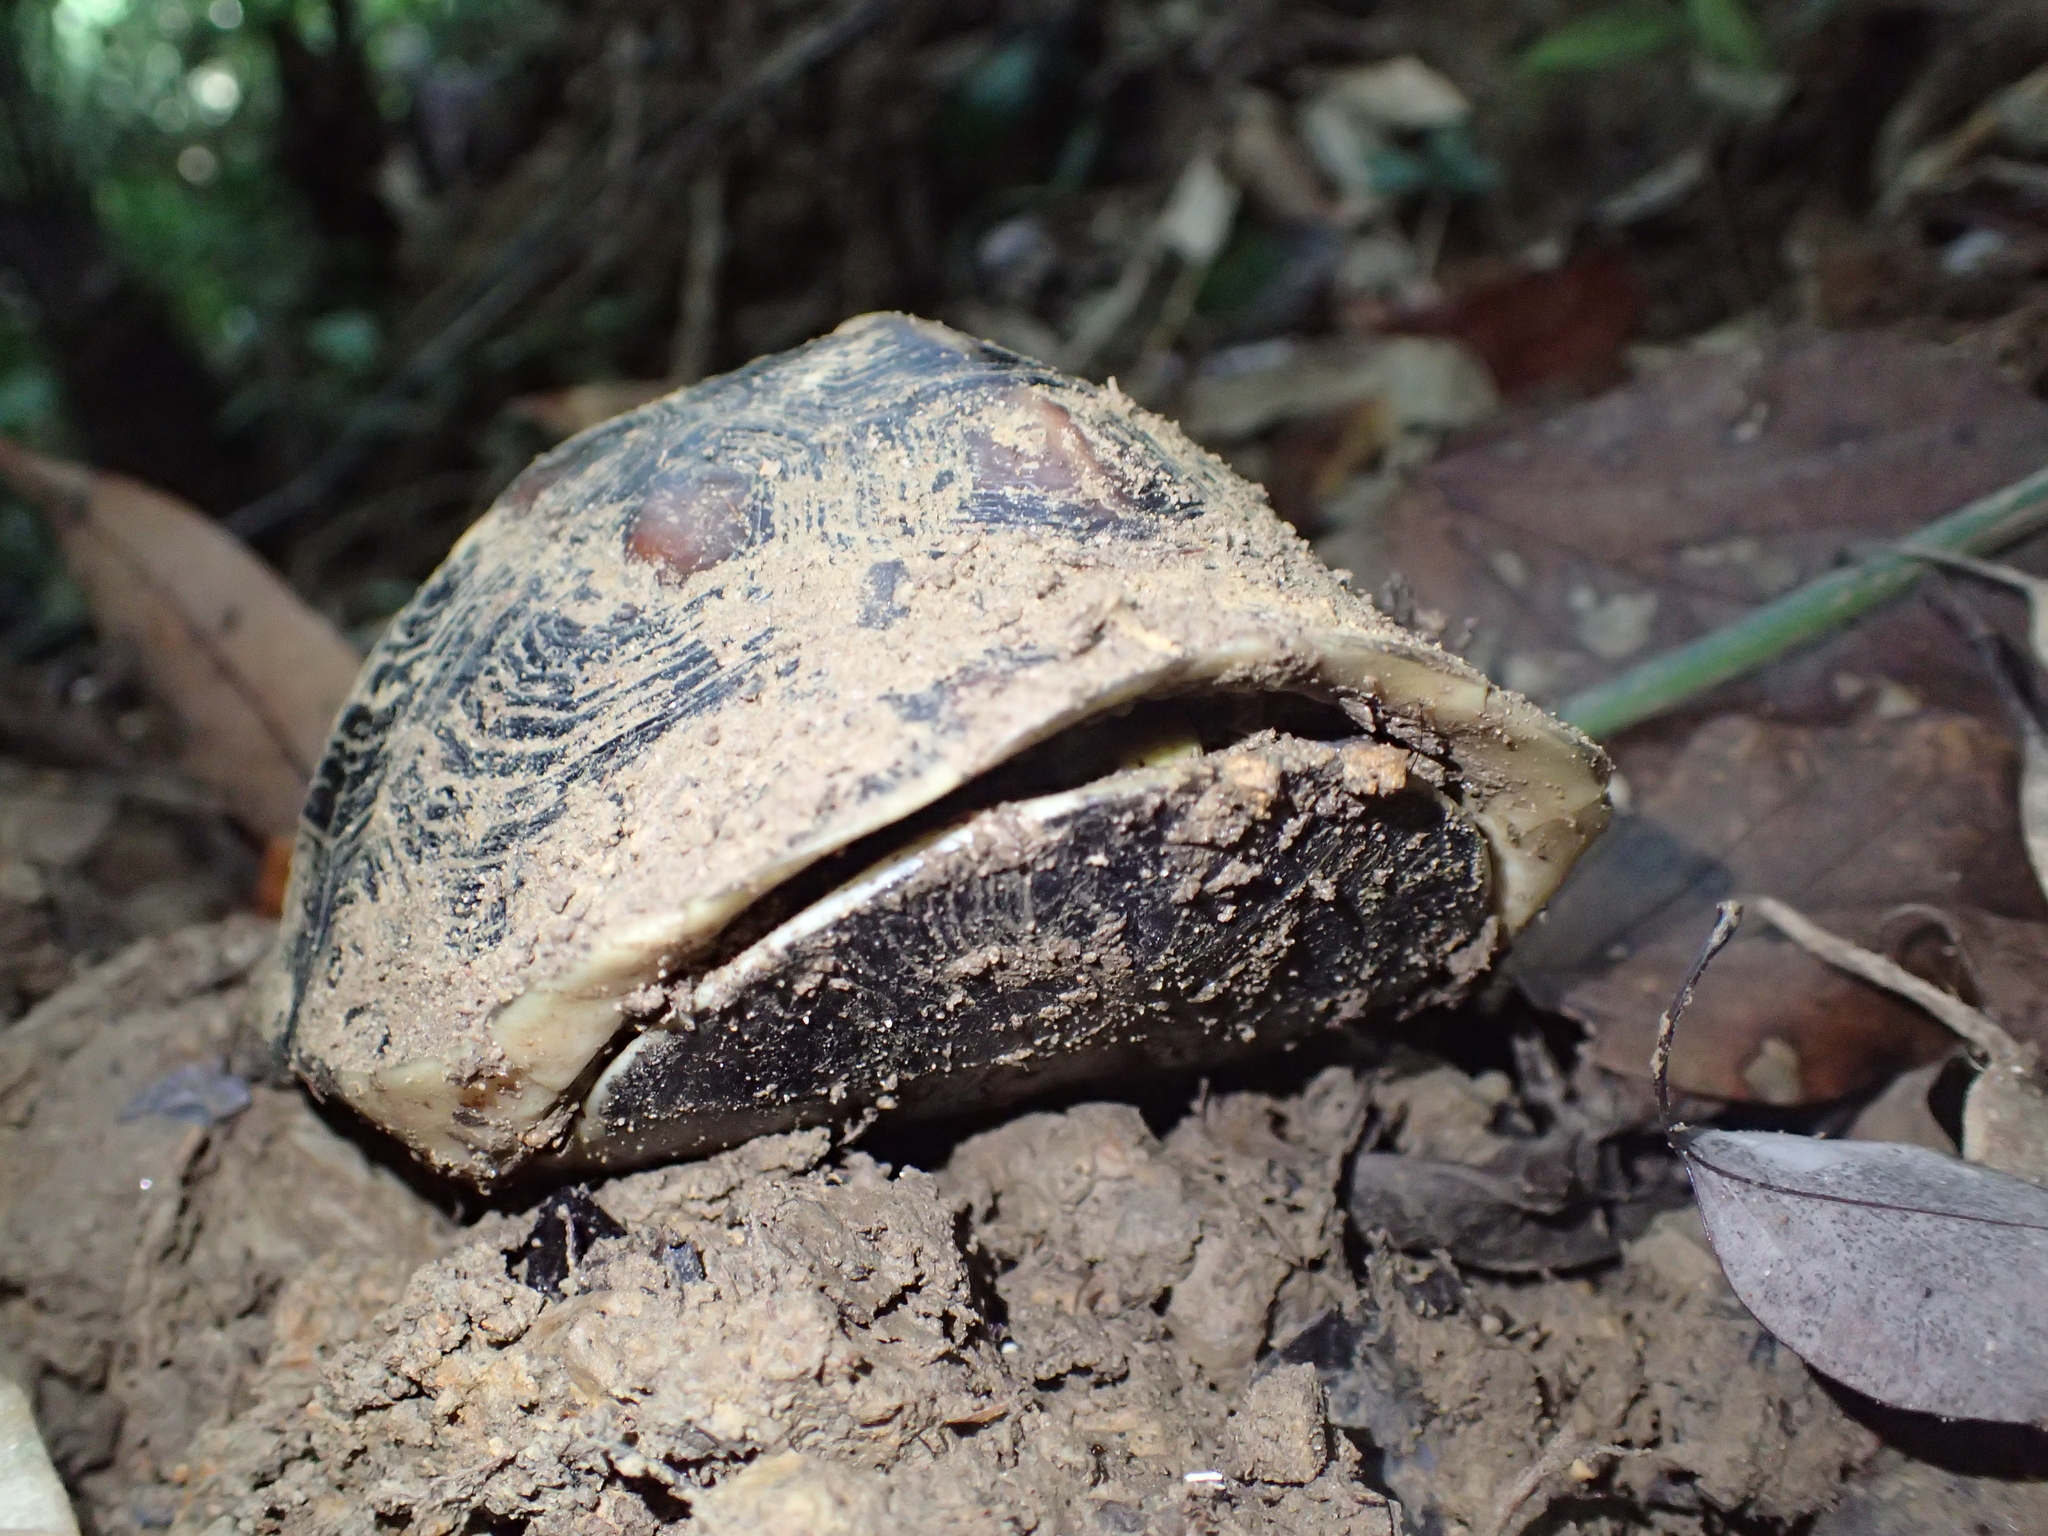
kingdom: Animalia
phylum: Chordata
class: Testudines
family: Geoemydidae
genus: Cuora
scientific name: Cuora flavomarginata
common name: Yellow-margined box turtle
